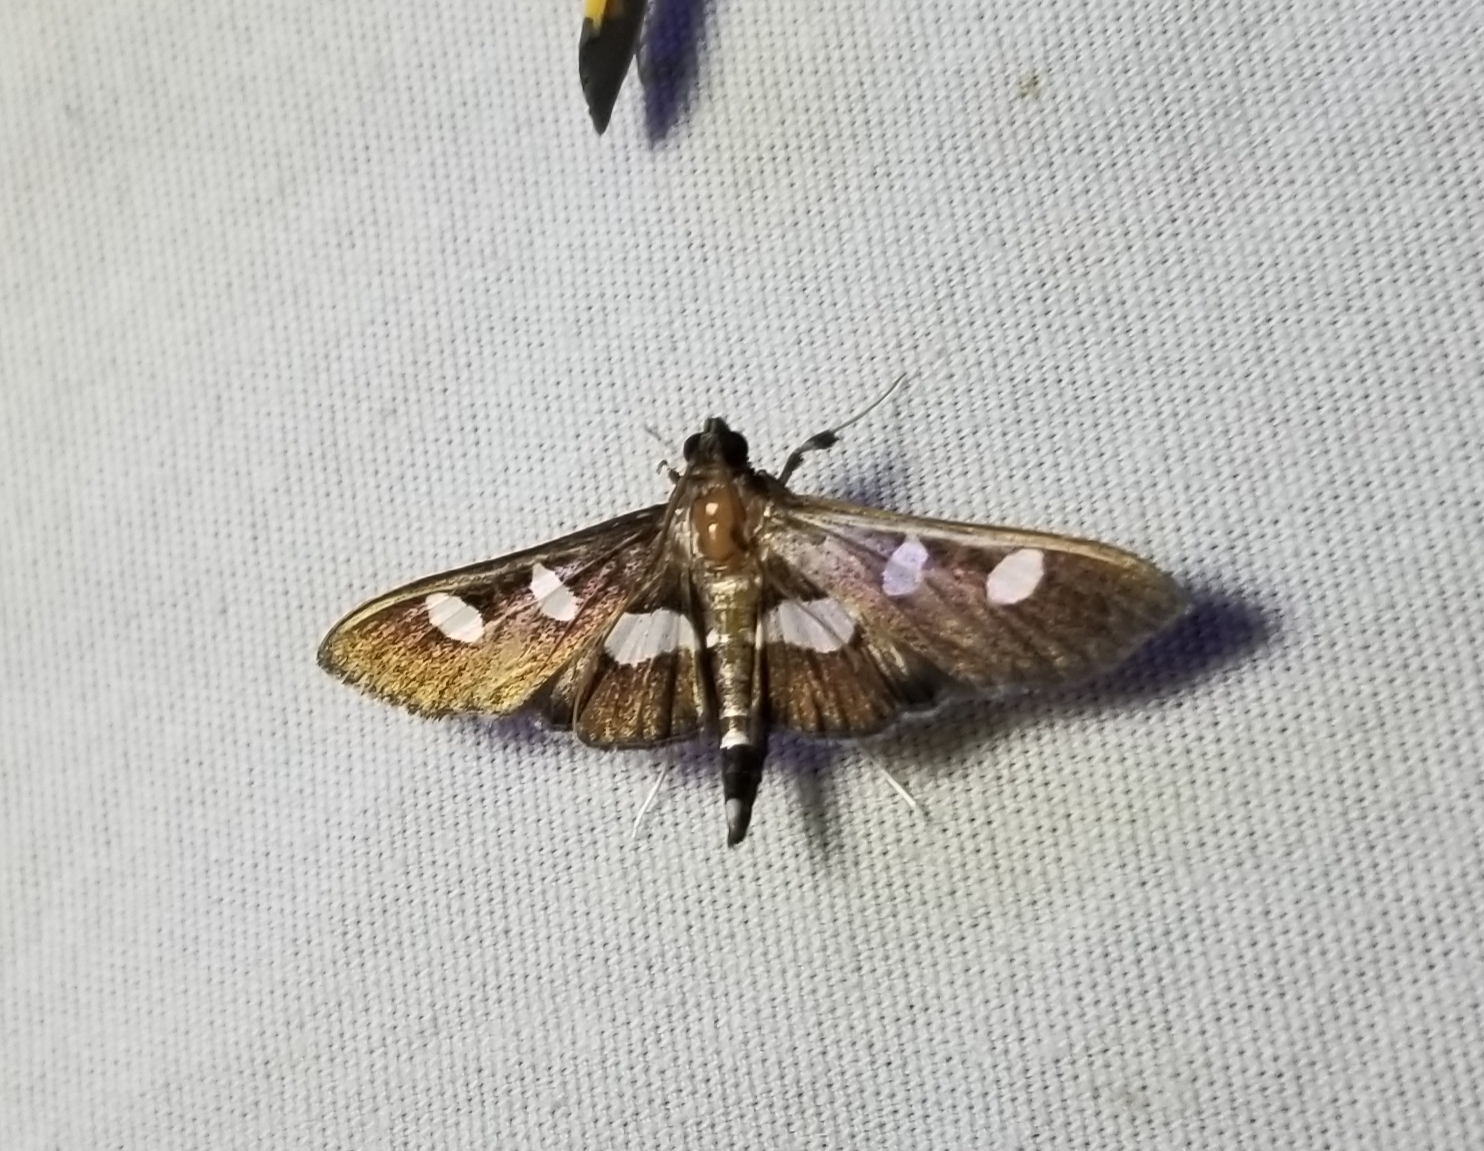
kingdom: Animalia
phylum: Arthropoda
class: Insecta
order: Lepidoptera
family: Crambidae
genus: Desmia
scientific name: Desmia
